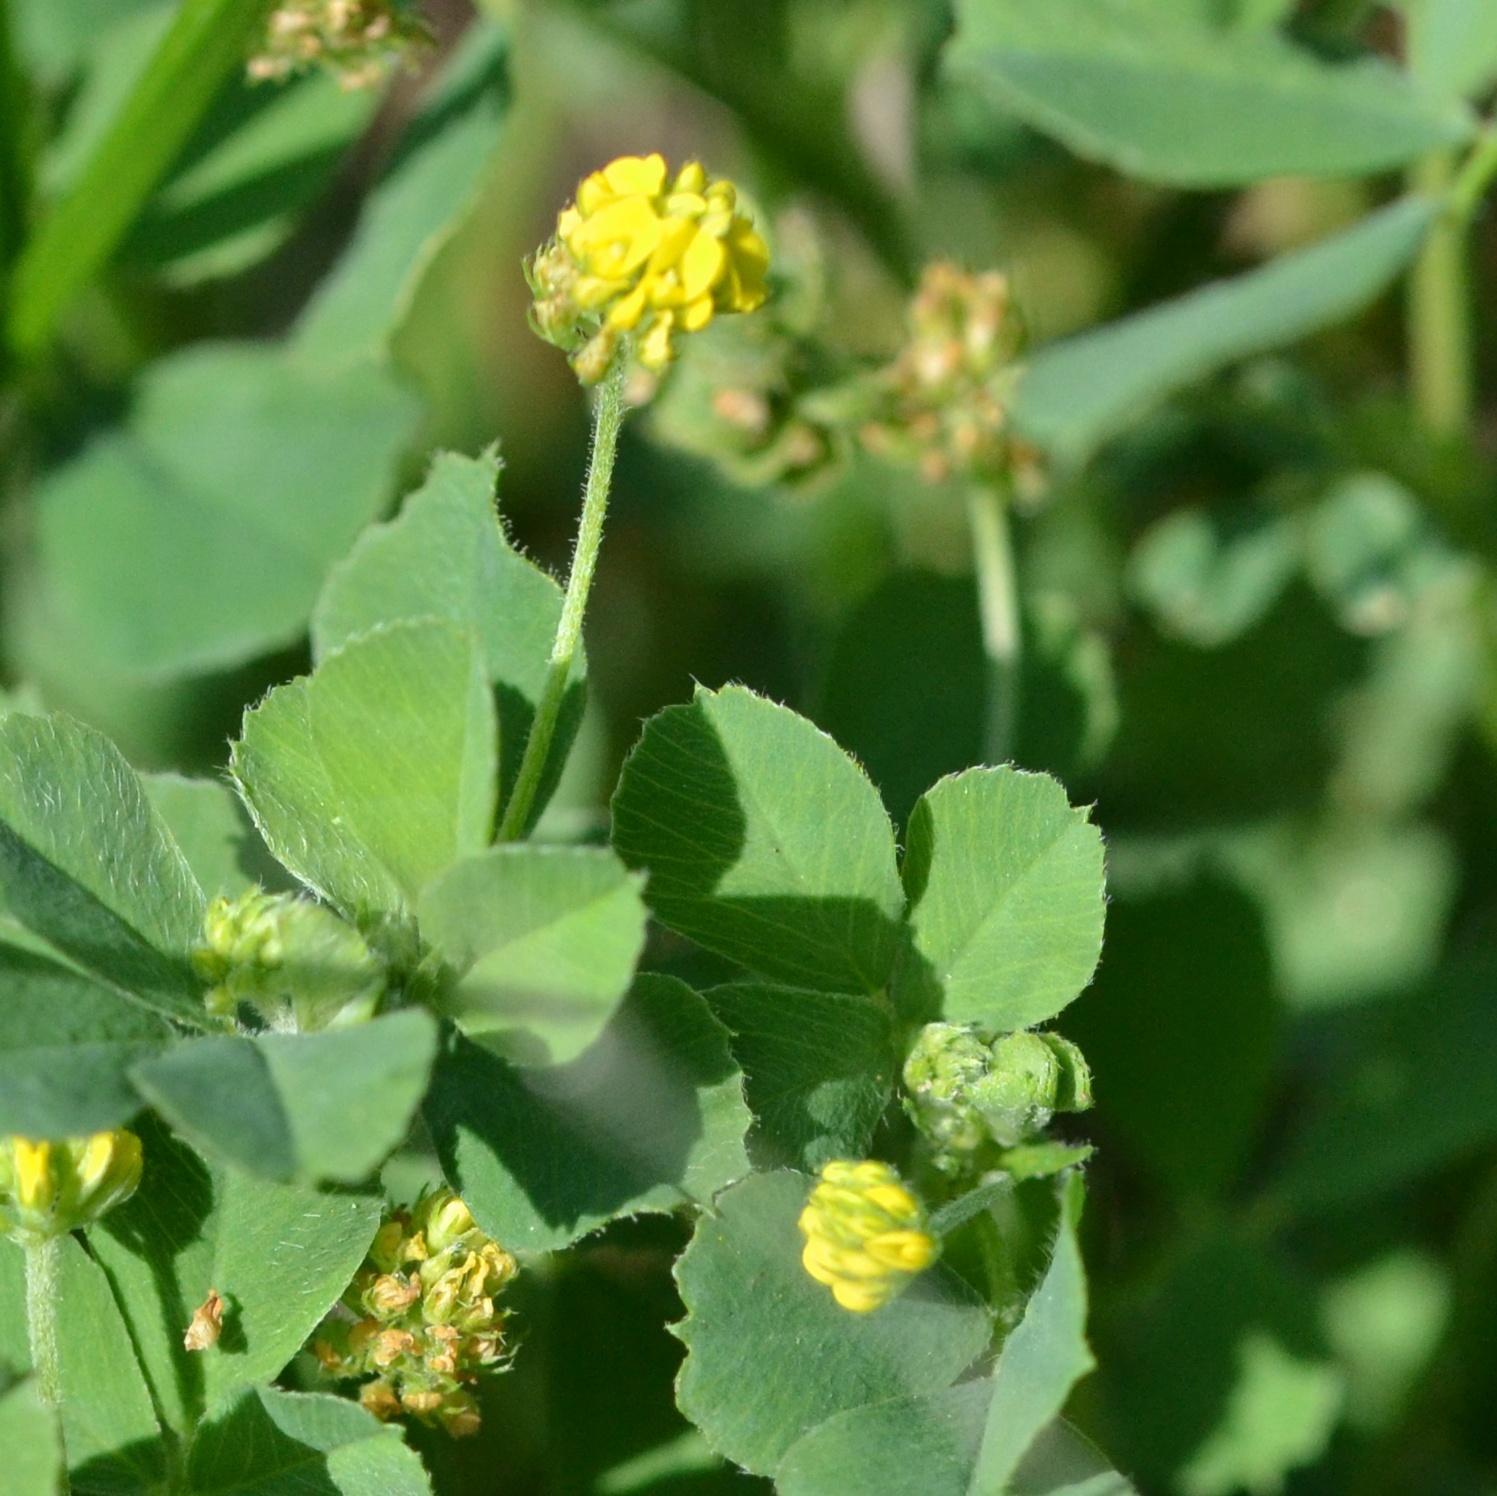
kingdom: Plantae
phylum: Tracheophyta
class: Magnoliopsida
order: Fabales
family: Fabaceae
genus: Medicago
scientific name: Medicago lupulina
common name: Black medick
